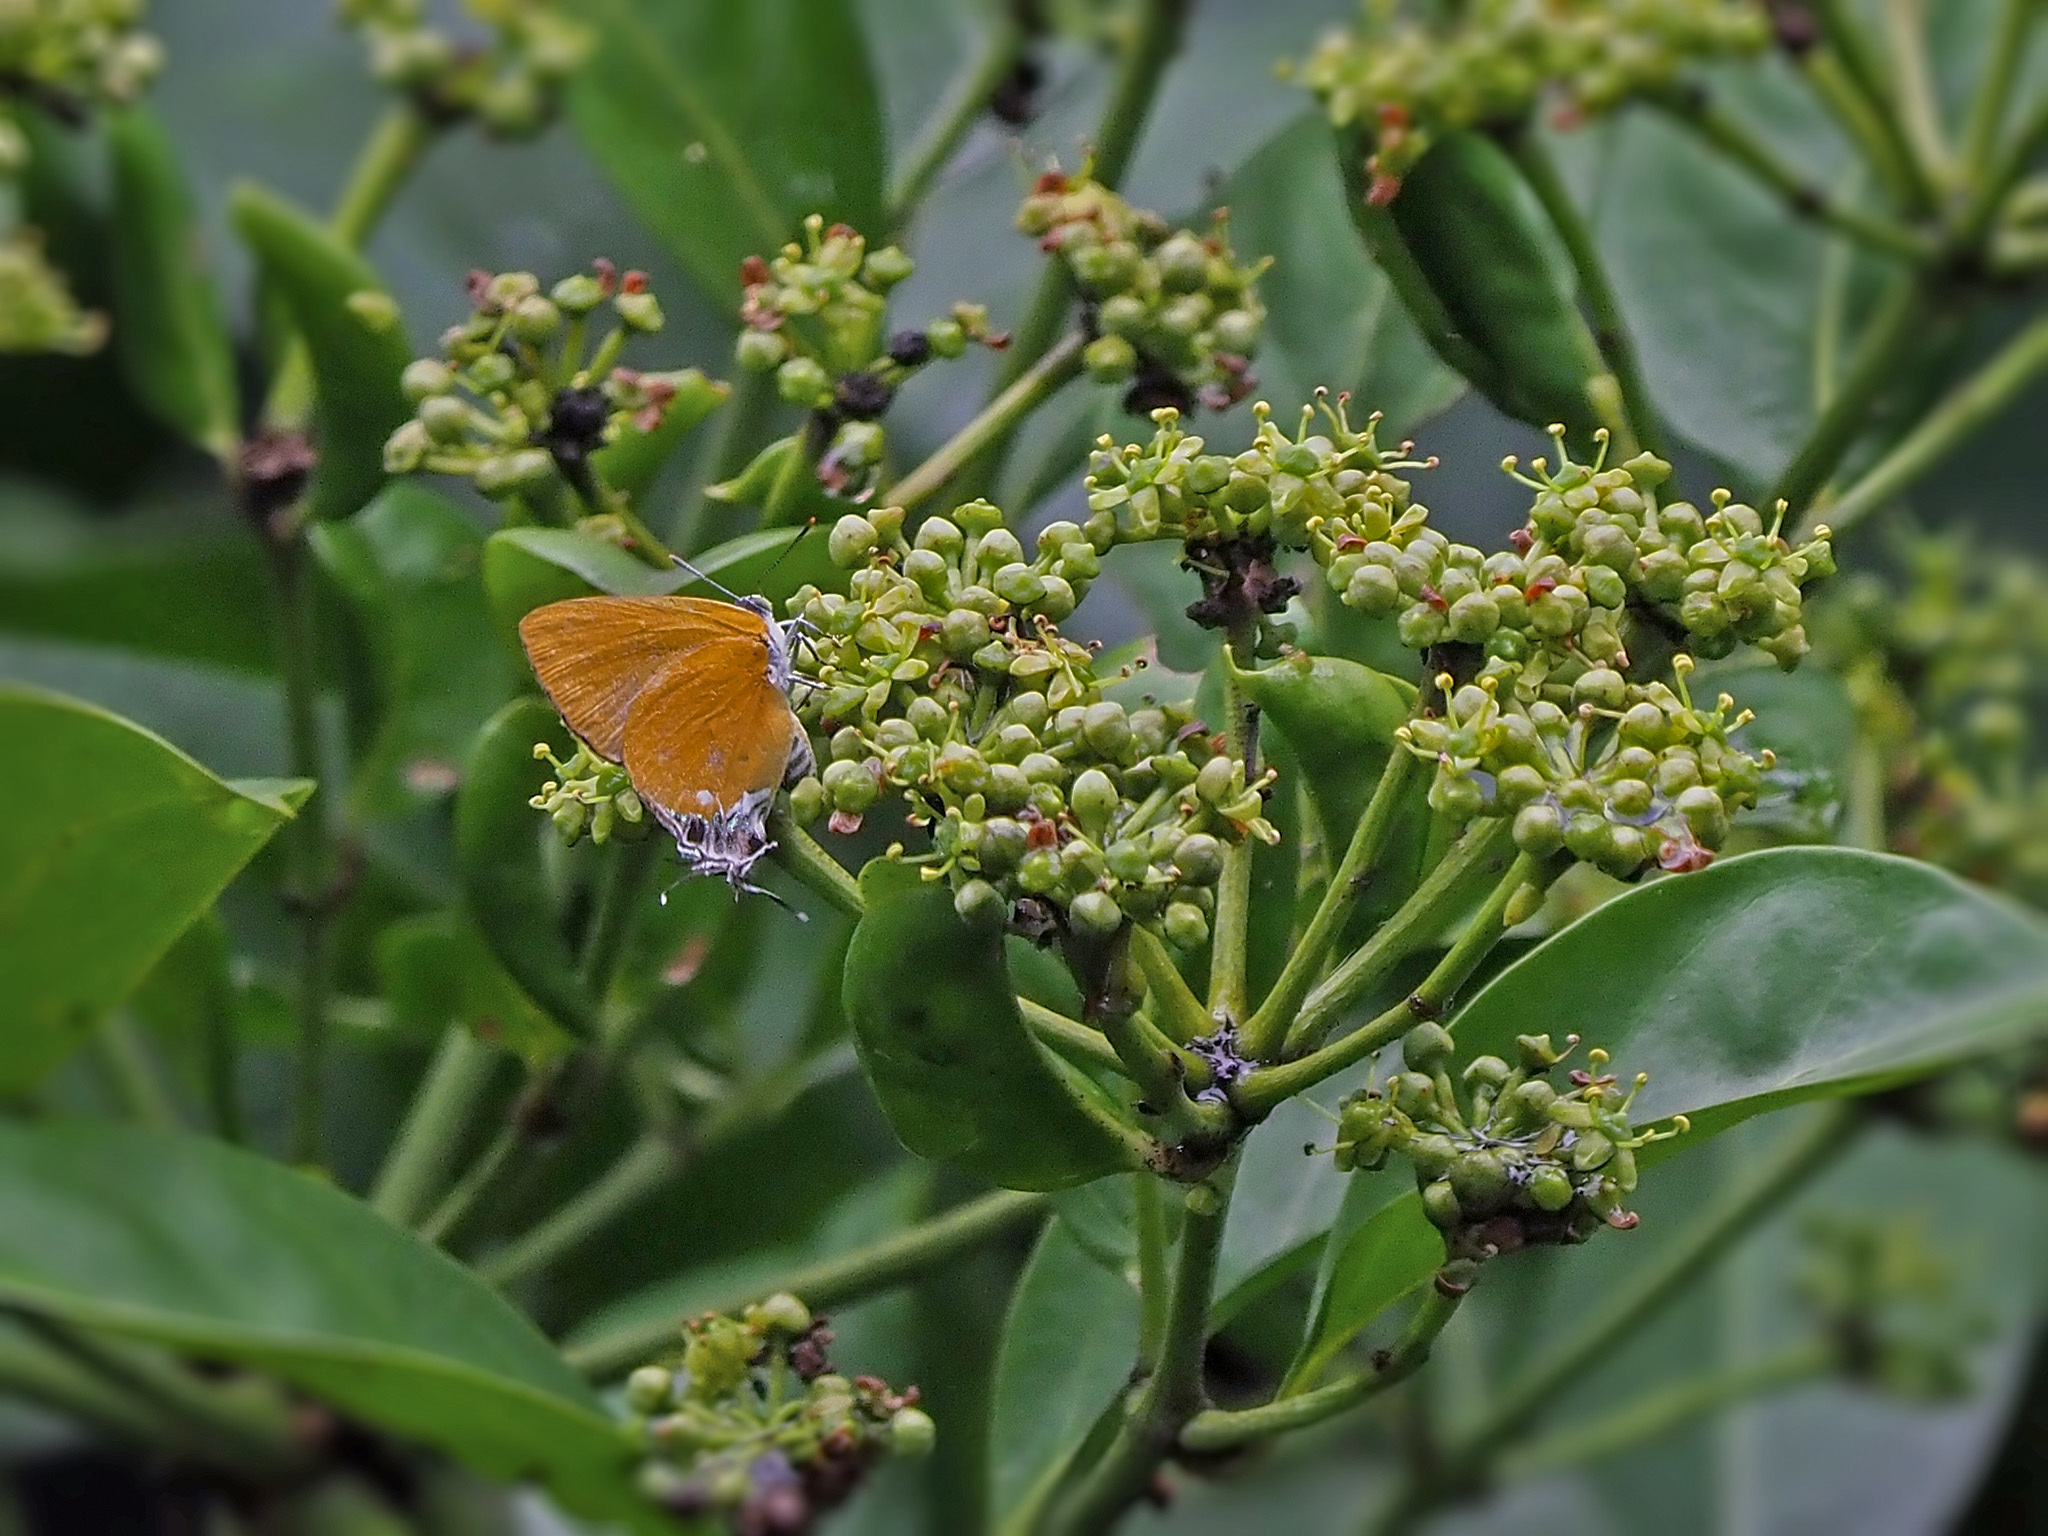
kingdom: Animalia
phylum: Arthropoda
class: Insecta
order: Lepidoptera
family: Lycaenidae
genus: Pseudomyrina
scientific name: Pseudomyrina
